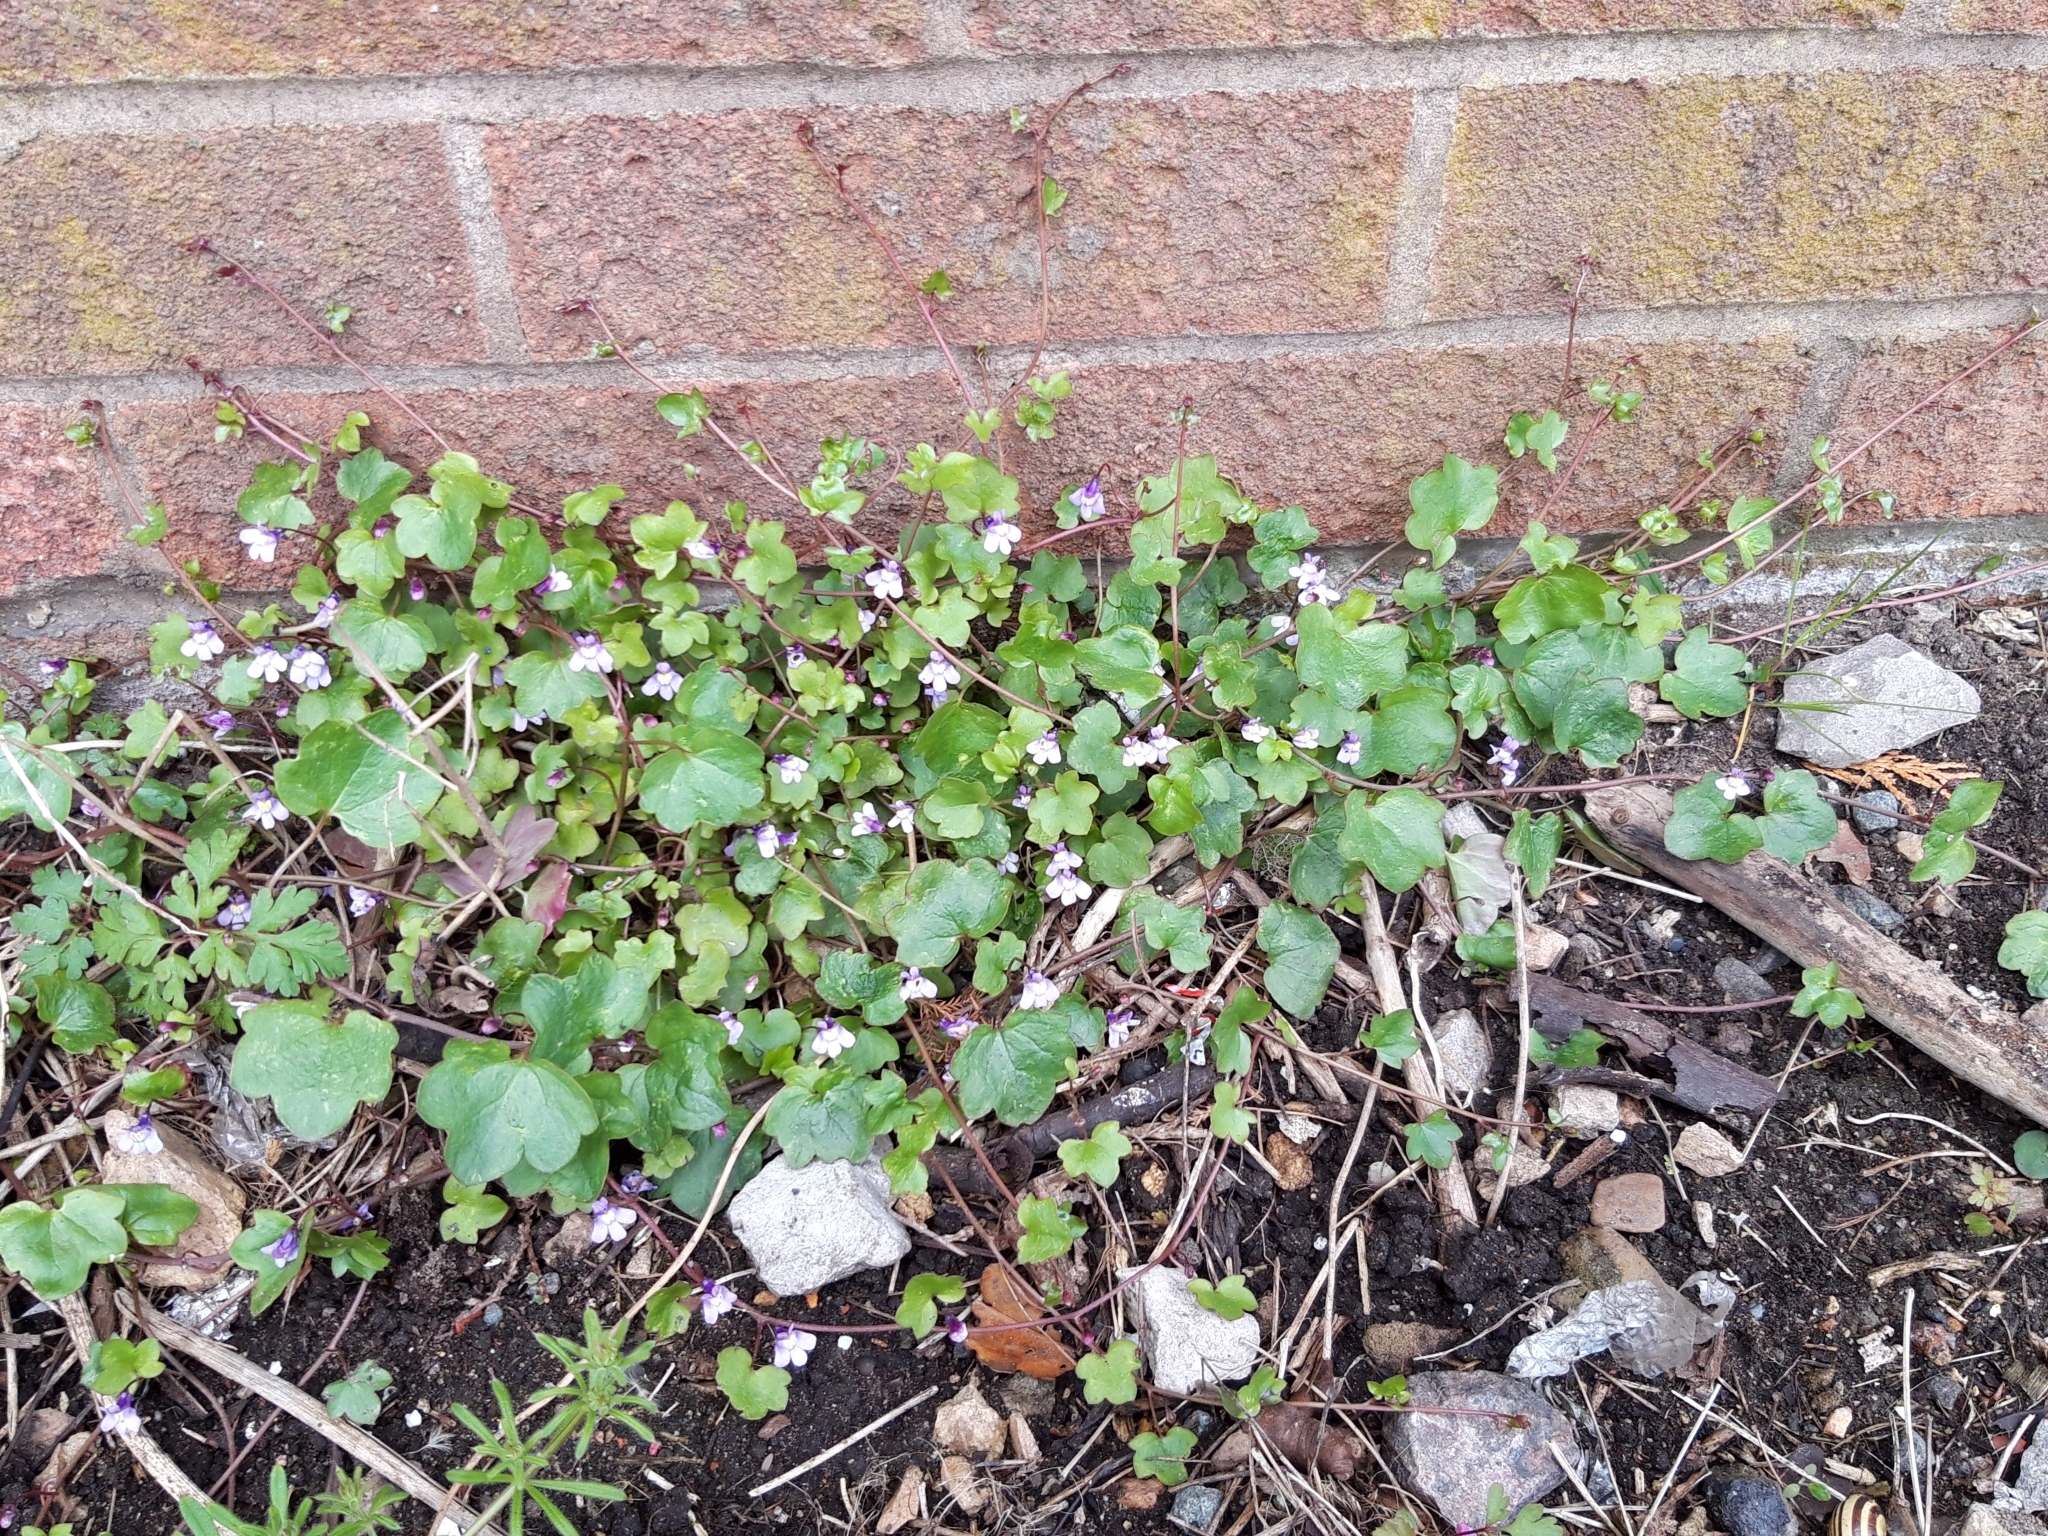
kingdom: Plantae
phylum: Tracheophyta
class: Magnoliopsida
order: Lamiales
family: Plantaginaceae
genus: Cymbalaria
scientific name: Cymbalaria muralis
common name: Ivy-leaved toadflax
